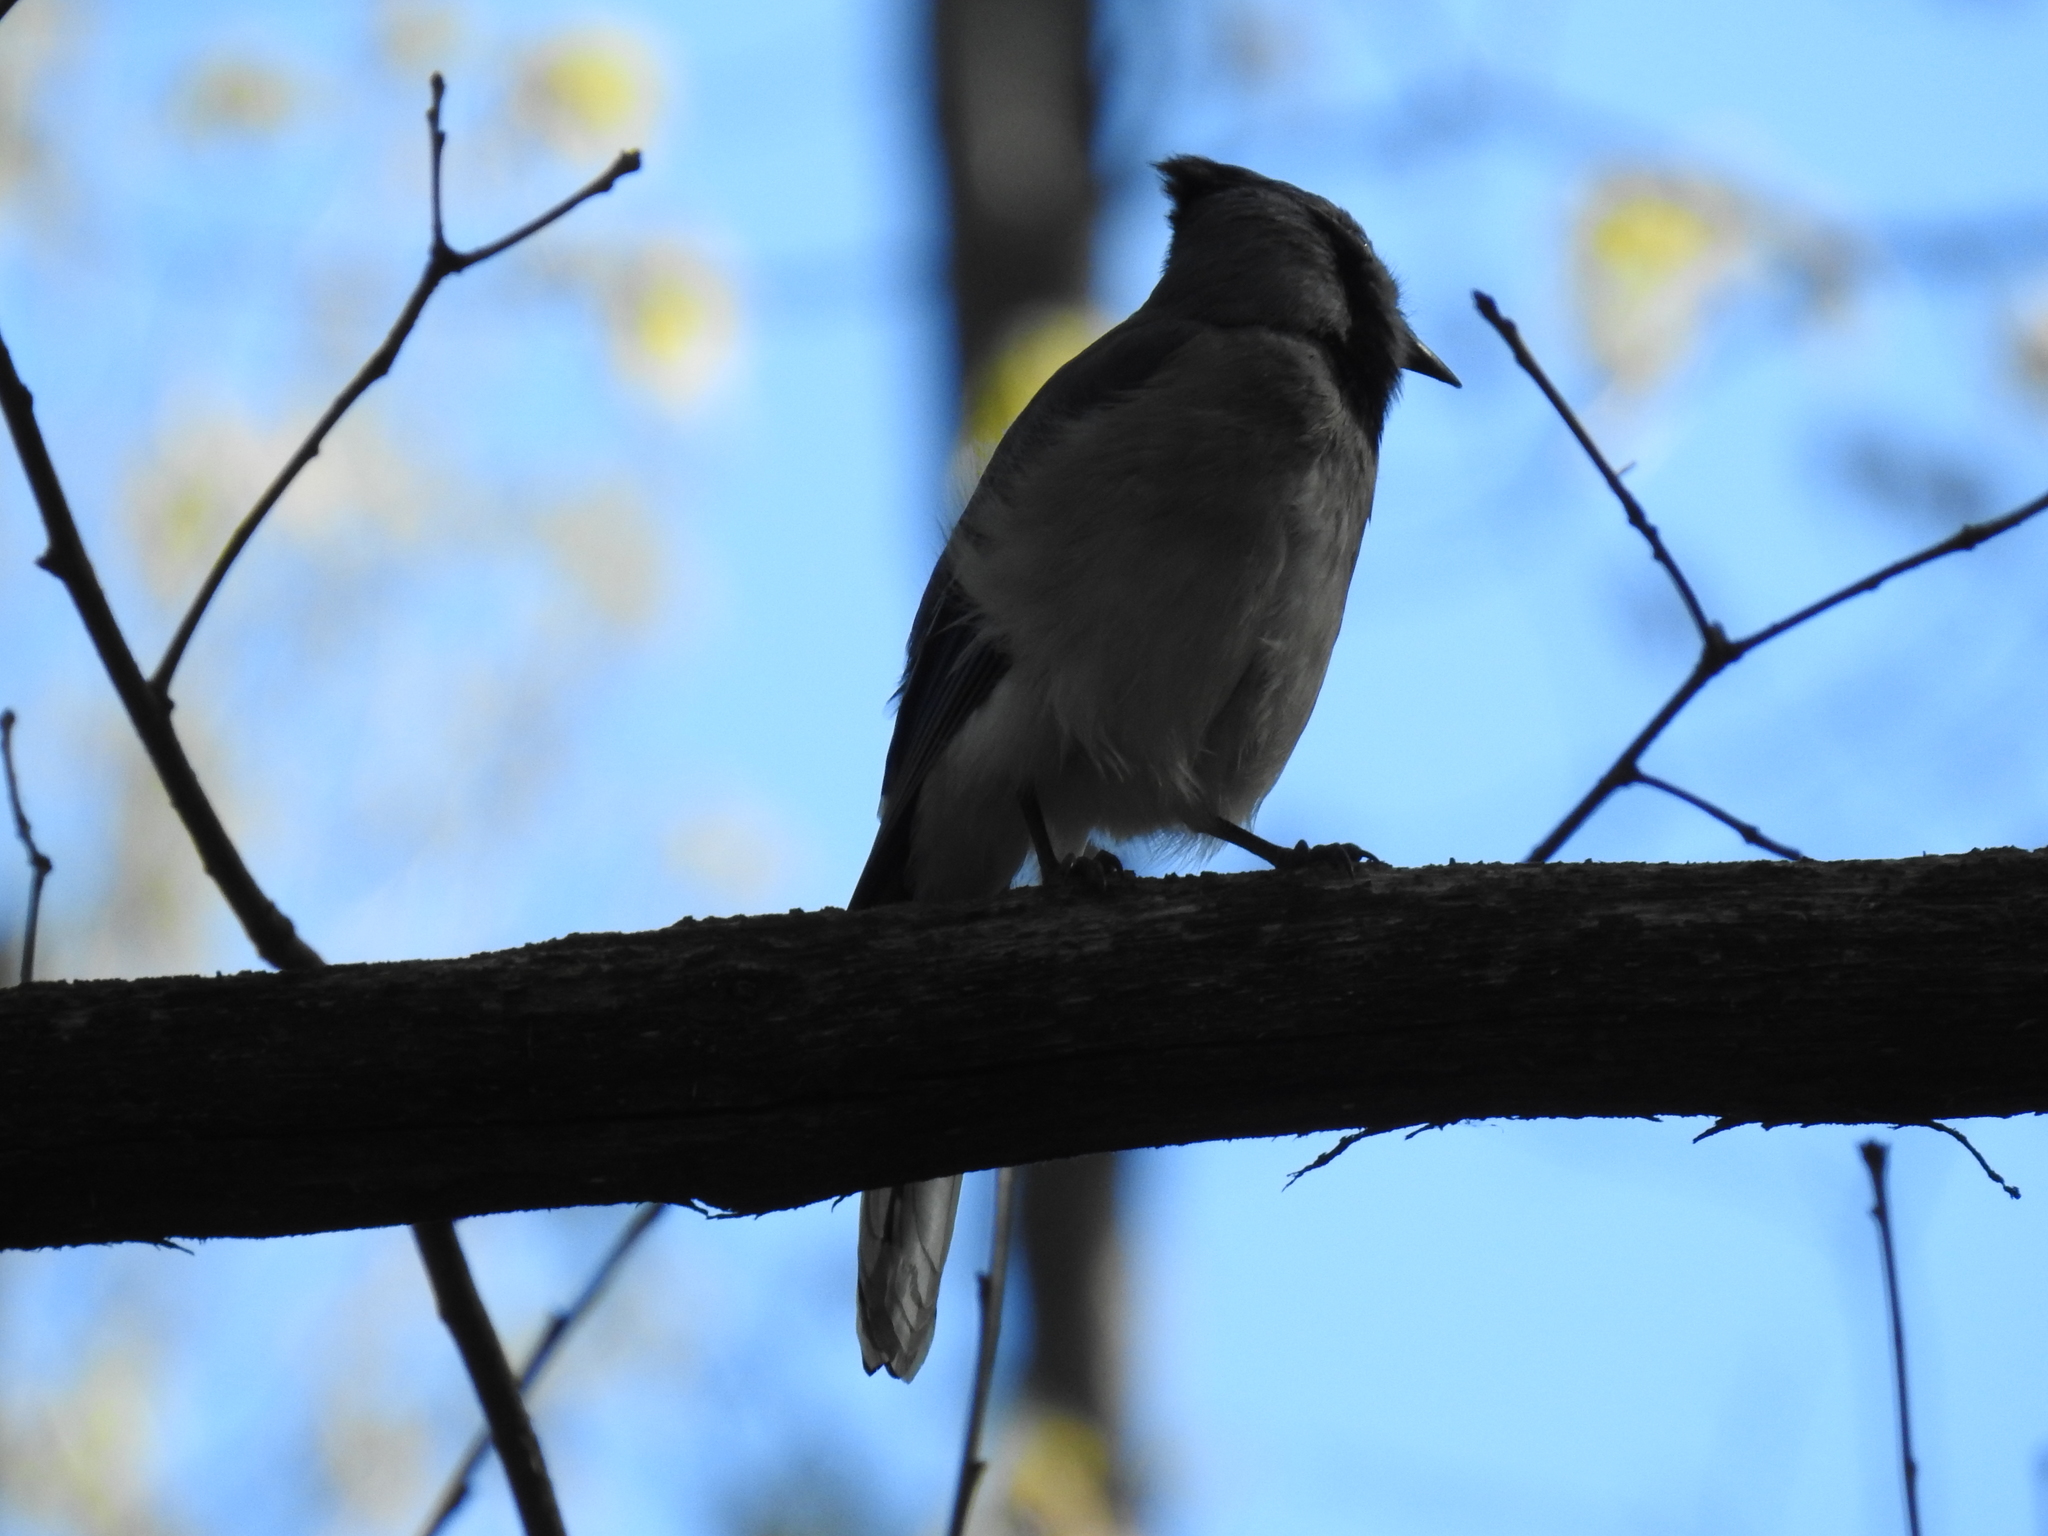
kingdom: Animalia
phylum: Chordata
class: Aves
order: Passeriformes
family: Corvidae
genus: Cyanocitta
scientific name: Cyanocitta cristata
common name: Blue jay
